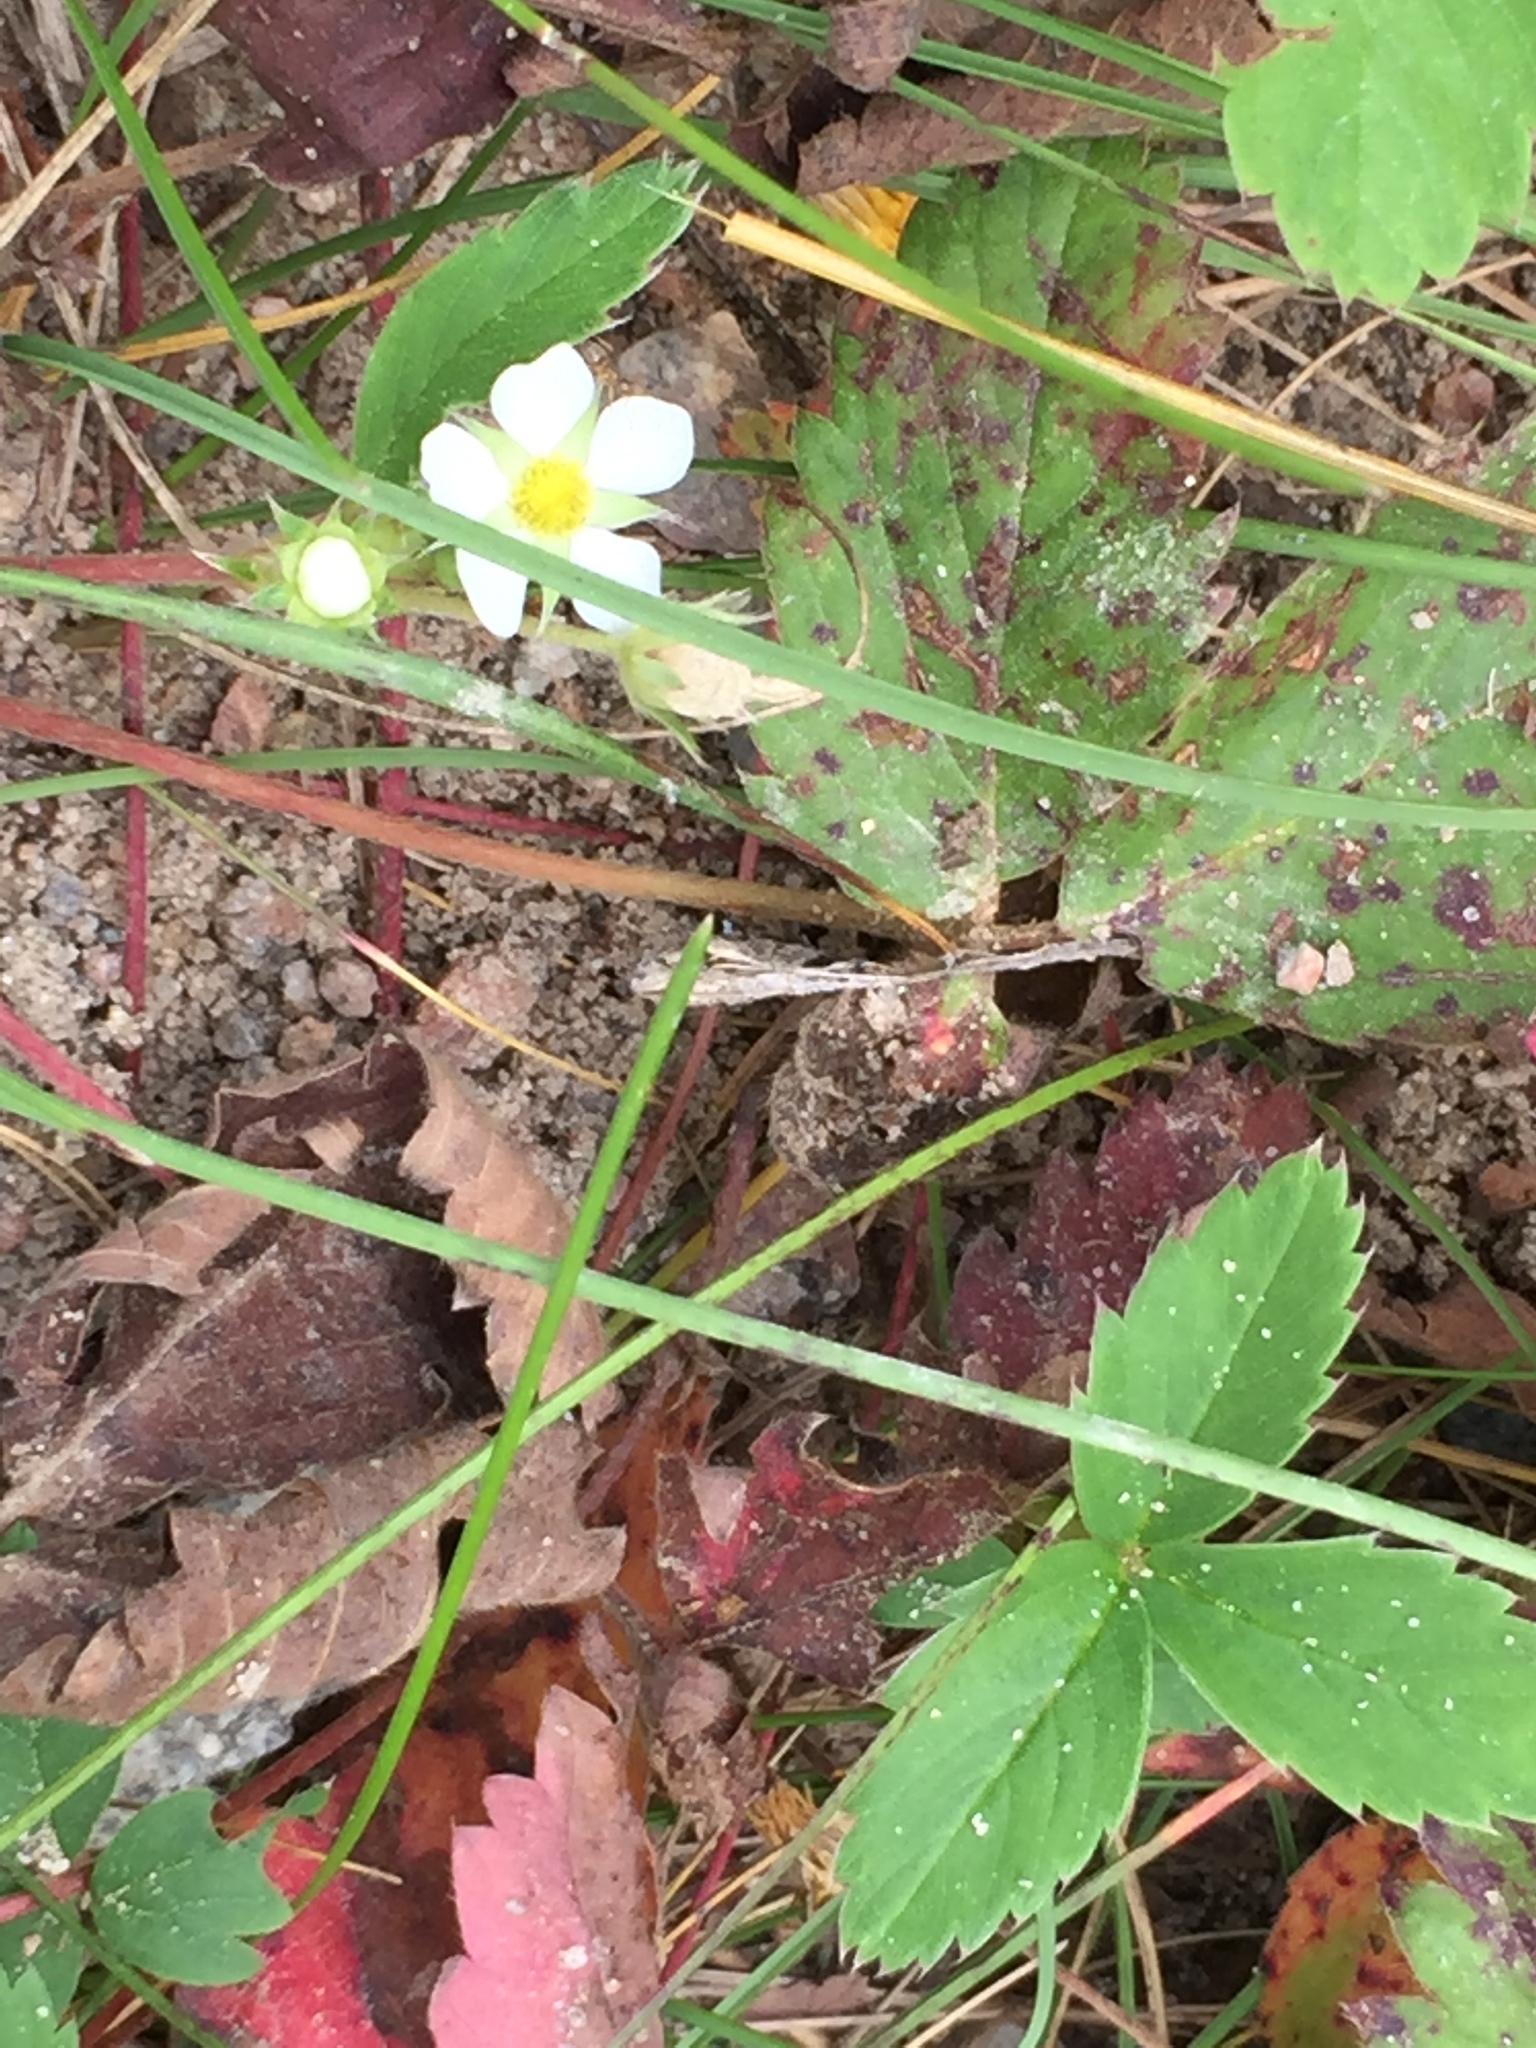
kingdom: Plantae
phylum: Tracheophyta
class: Magnoliopsida
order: Rosales
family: Rosaceae
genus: Fragaria
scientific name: Fragaria virginiana
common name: Thickleaved wild strawberry
